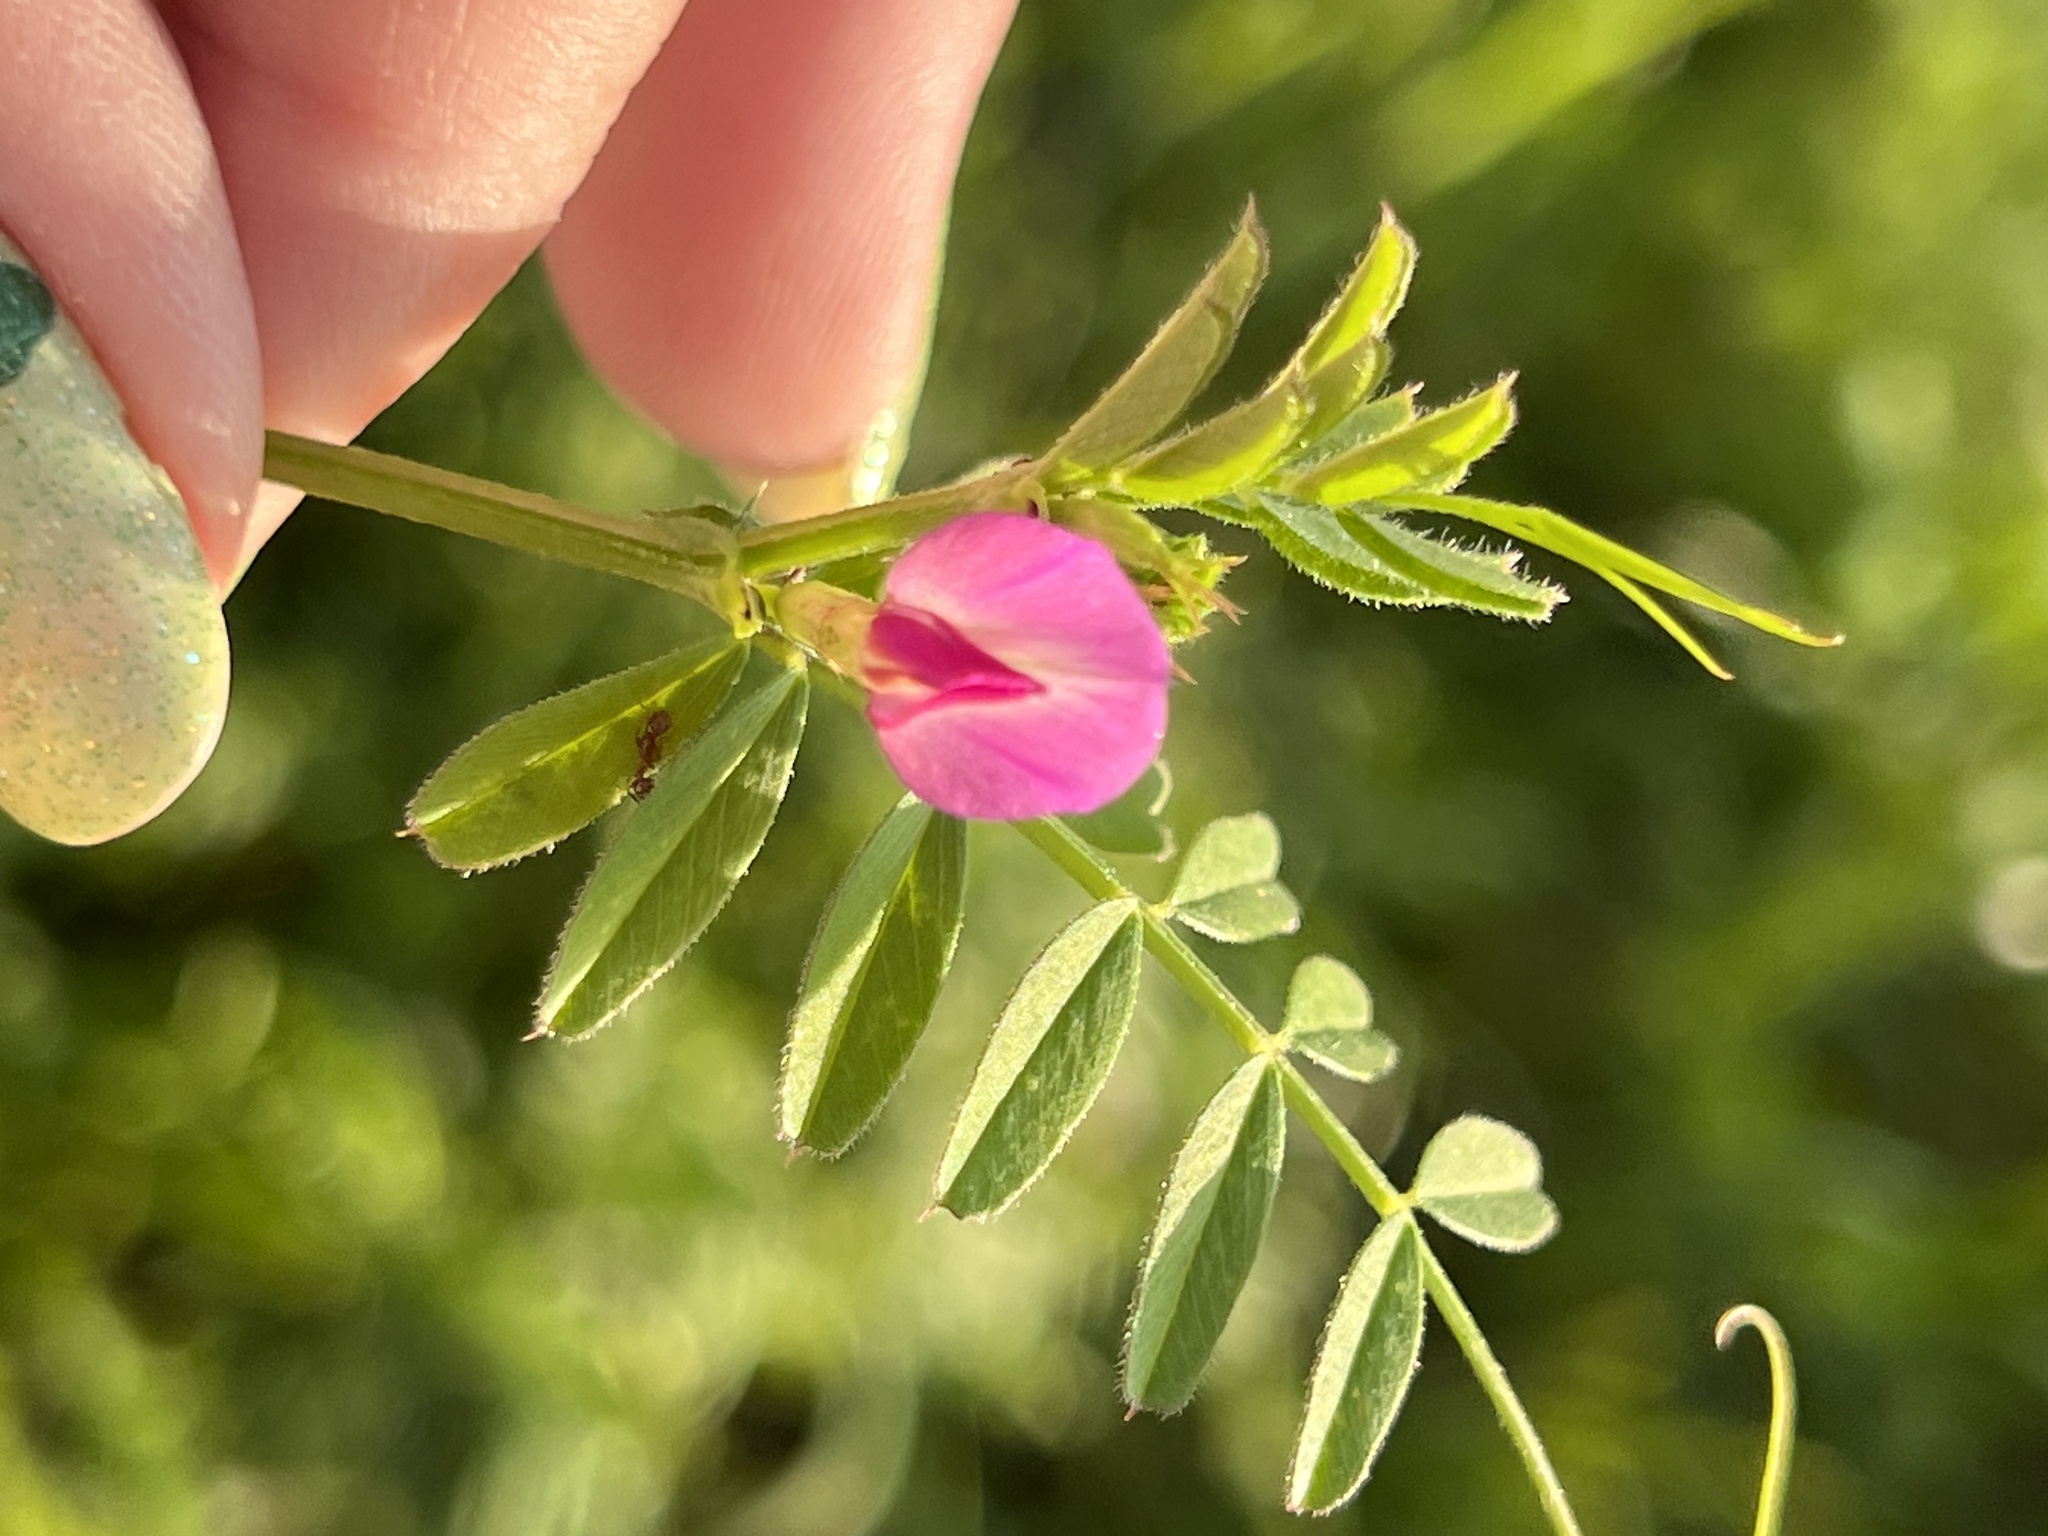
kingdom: Plantae
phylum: Tracheophyta
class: Magnoliopsida
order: Fabales
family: Fabaceae
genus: Vicia
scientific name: Vicia sativa
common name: Garden vetch
